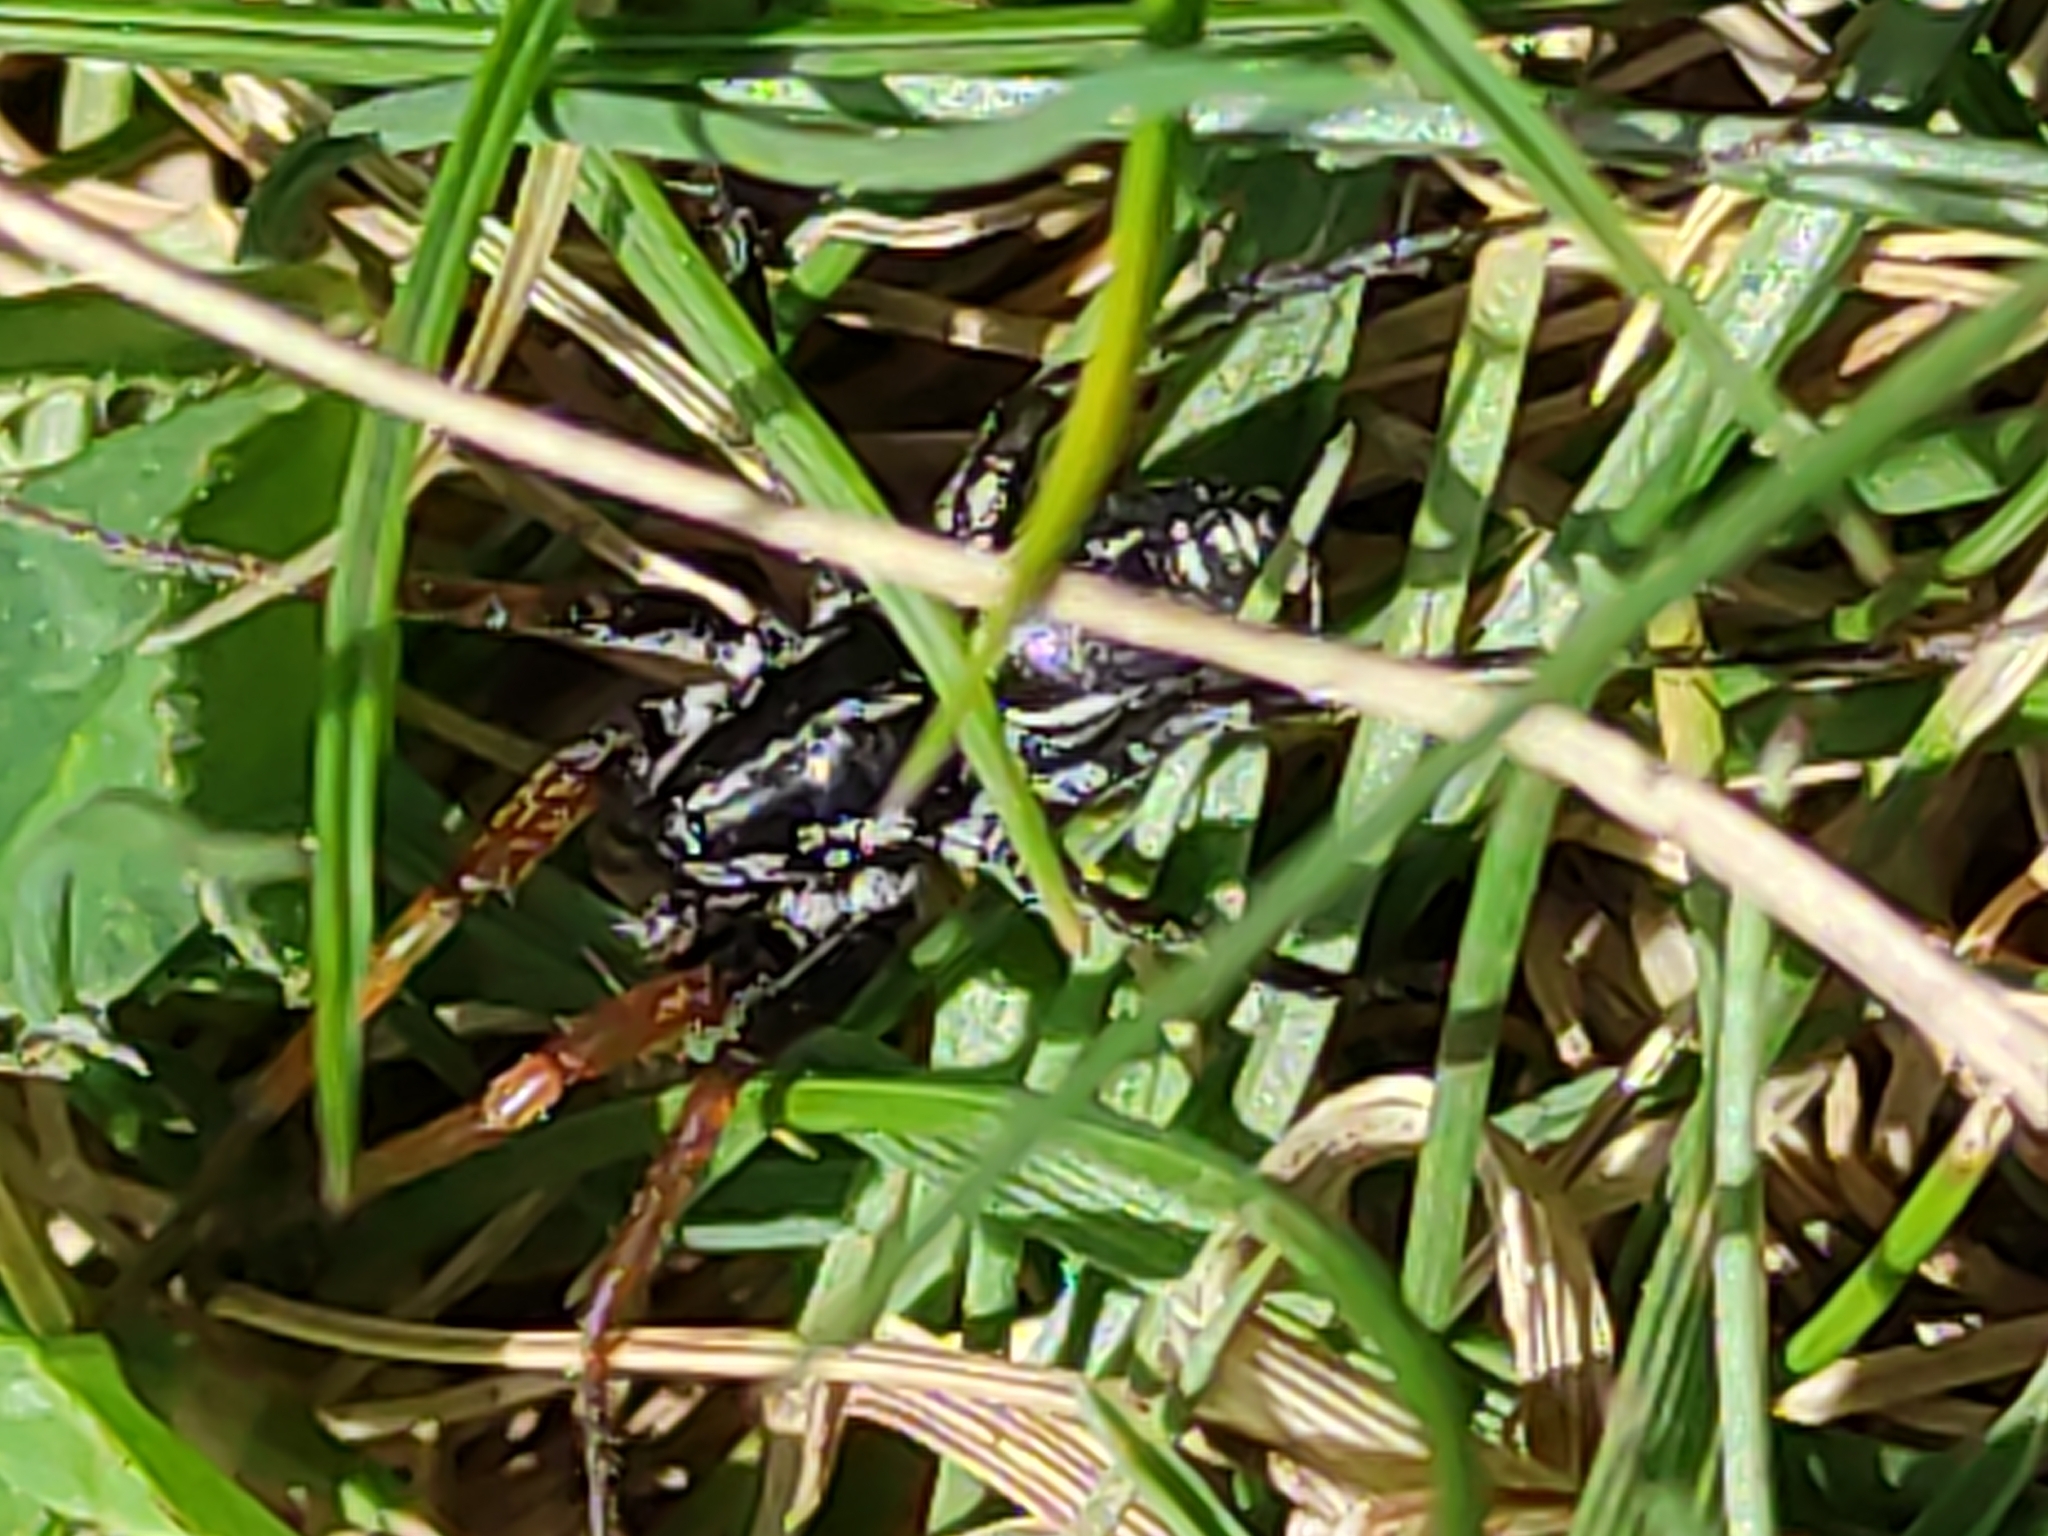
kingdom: Animalia
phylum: Arthropoda
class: Arachnida
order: Araneae
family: Corinnidae
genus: Nyssus
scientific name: Nyssus coloripes
